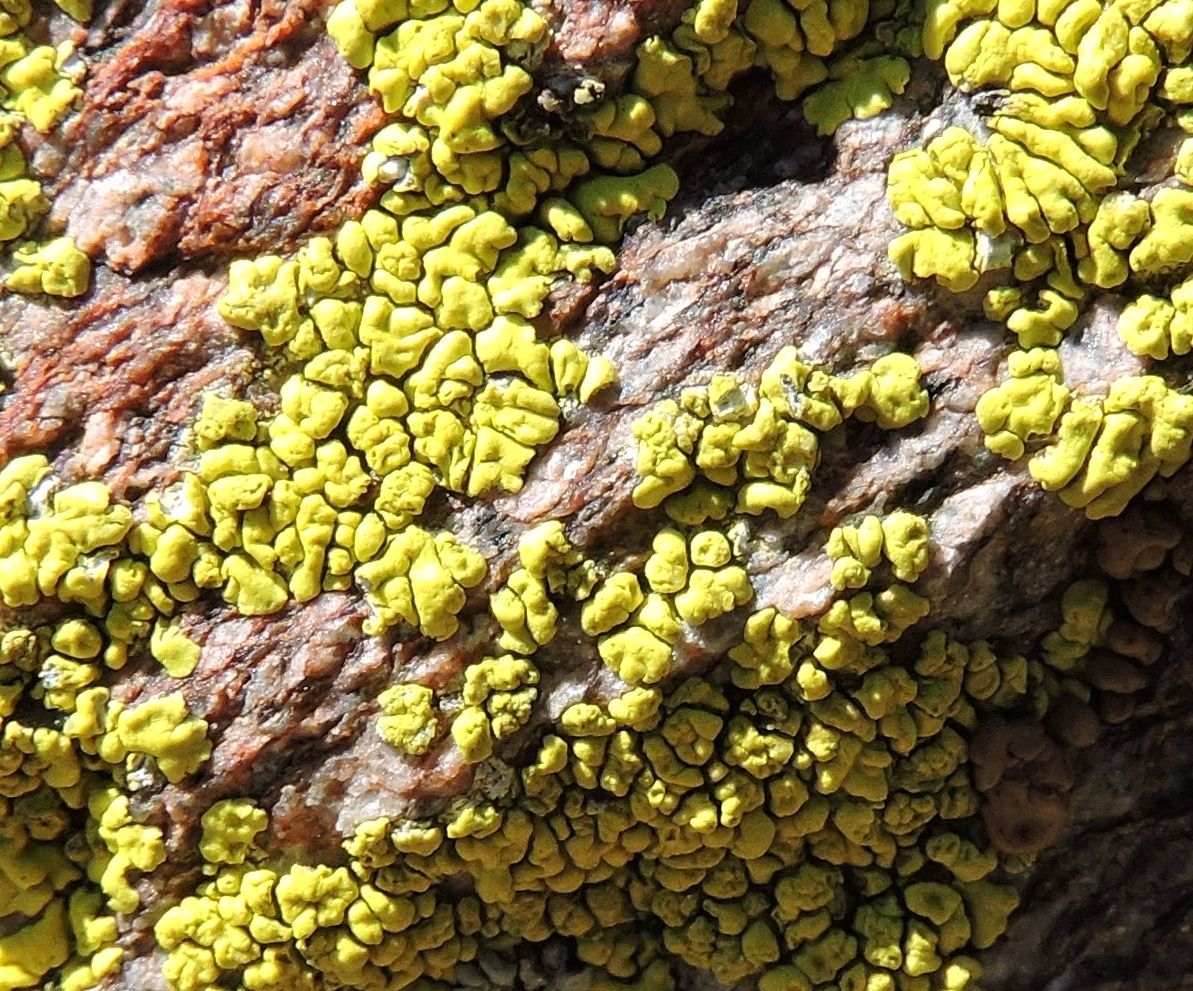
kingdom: Fungi
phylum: Ascomycota
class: Lecanoromycetes
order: Acarosporales
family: Acarosporaceae
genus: Acarospora
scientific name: Acarospora socialis
